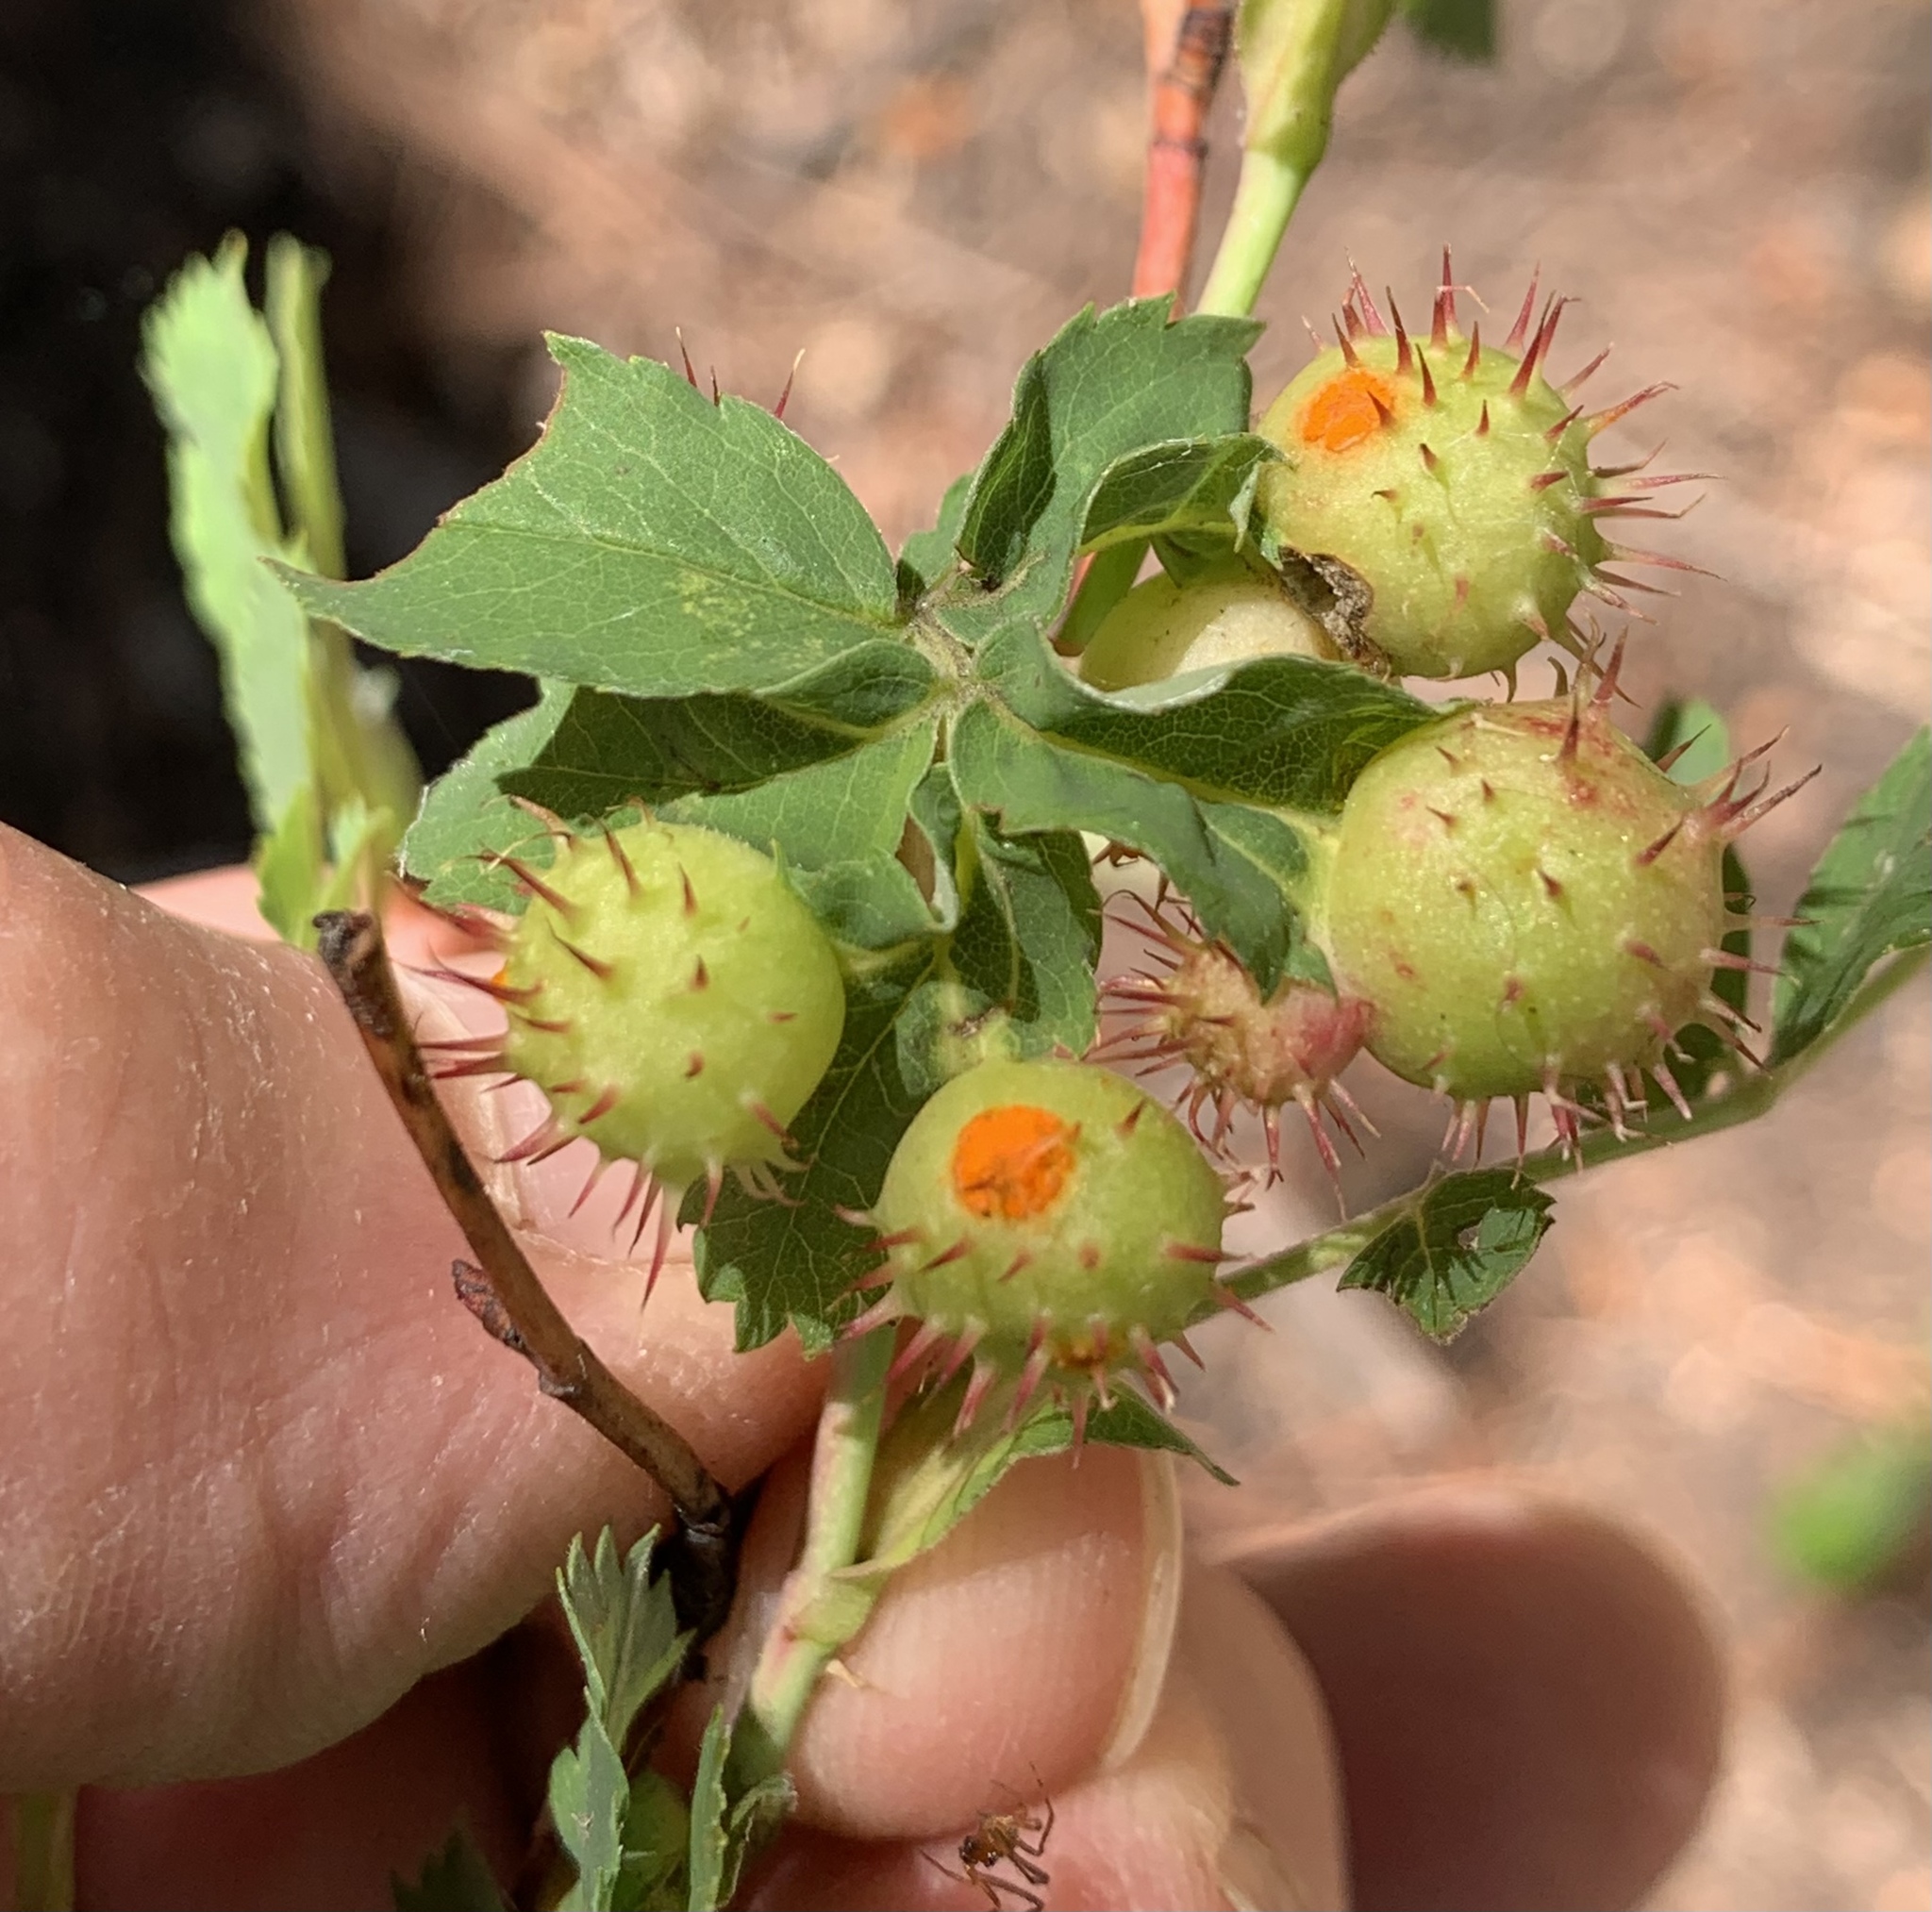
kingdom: Animalia
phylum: Arthropoda
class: Insecta
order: Hymenoptera
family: Cynipidae
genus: Diplolepis
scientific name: Diplolepis polita
